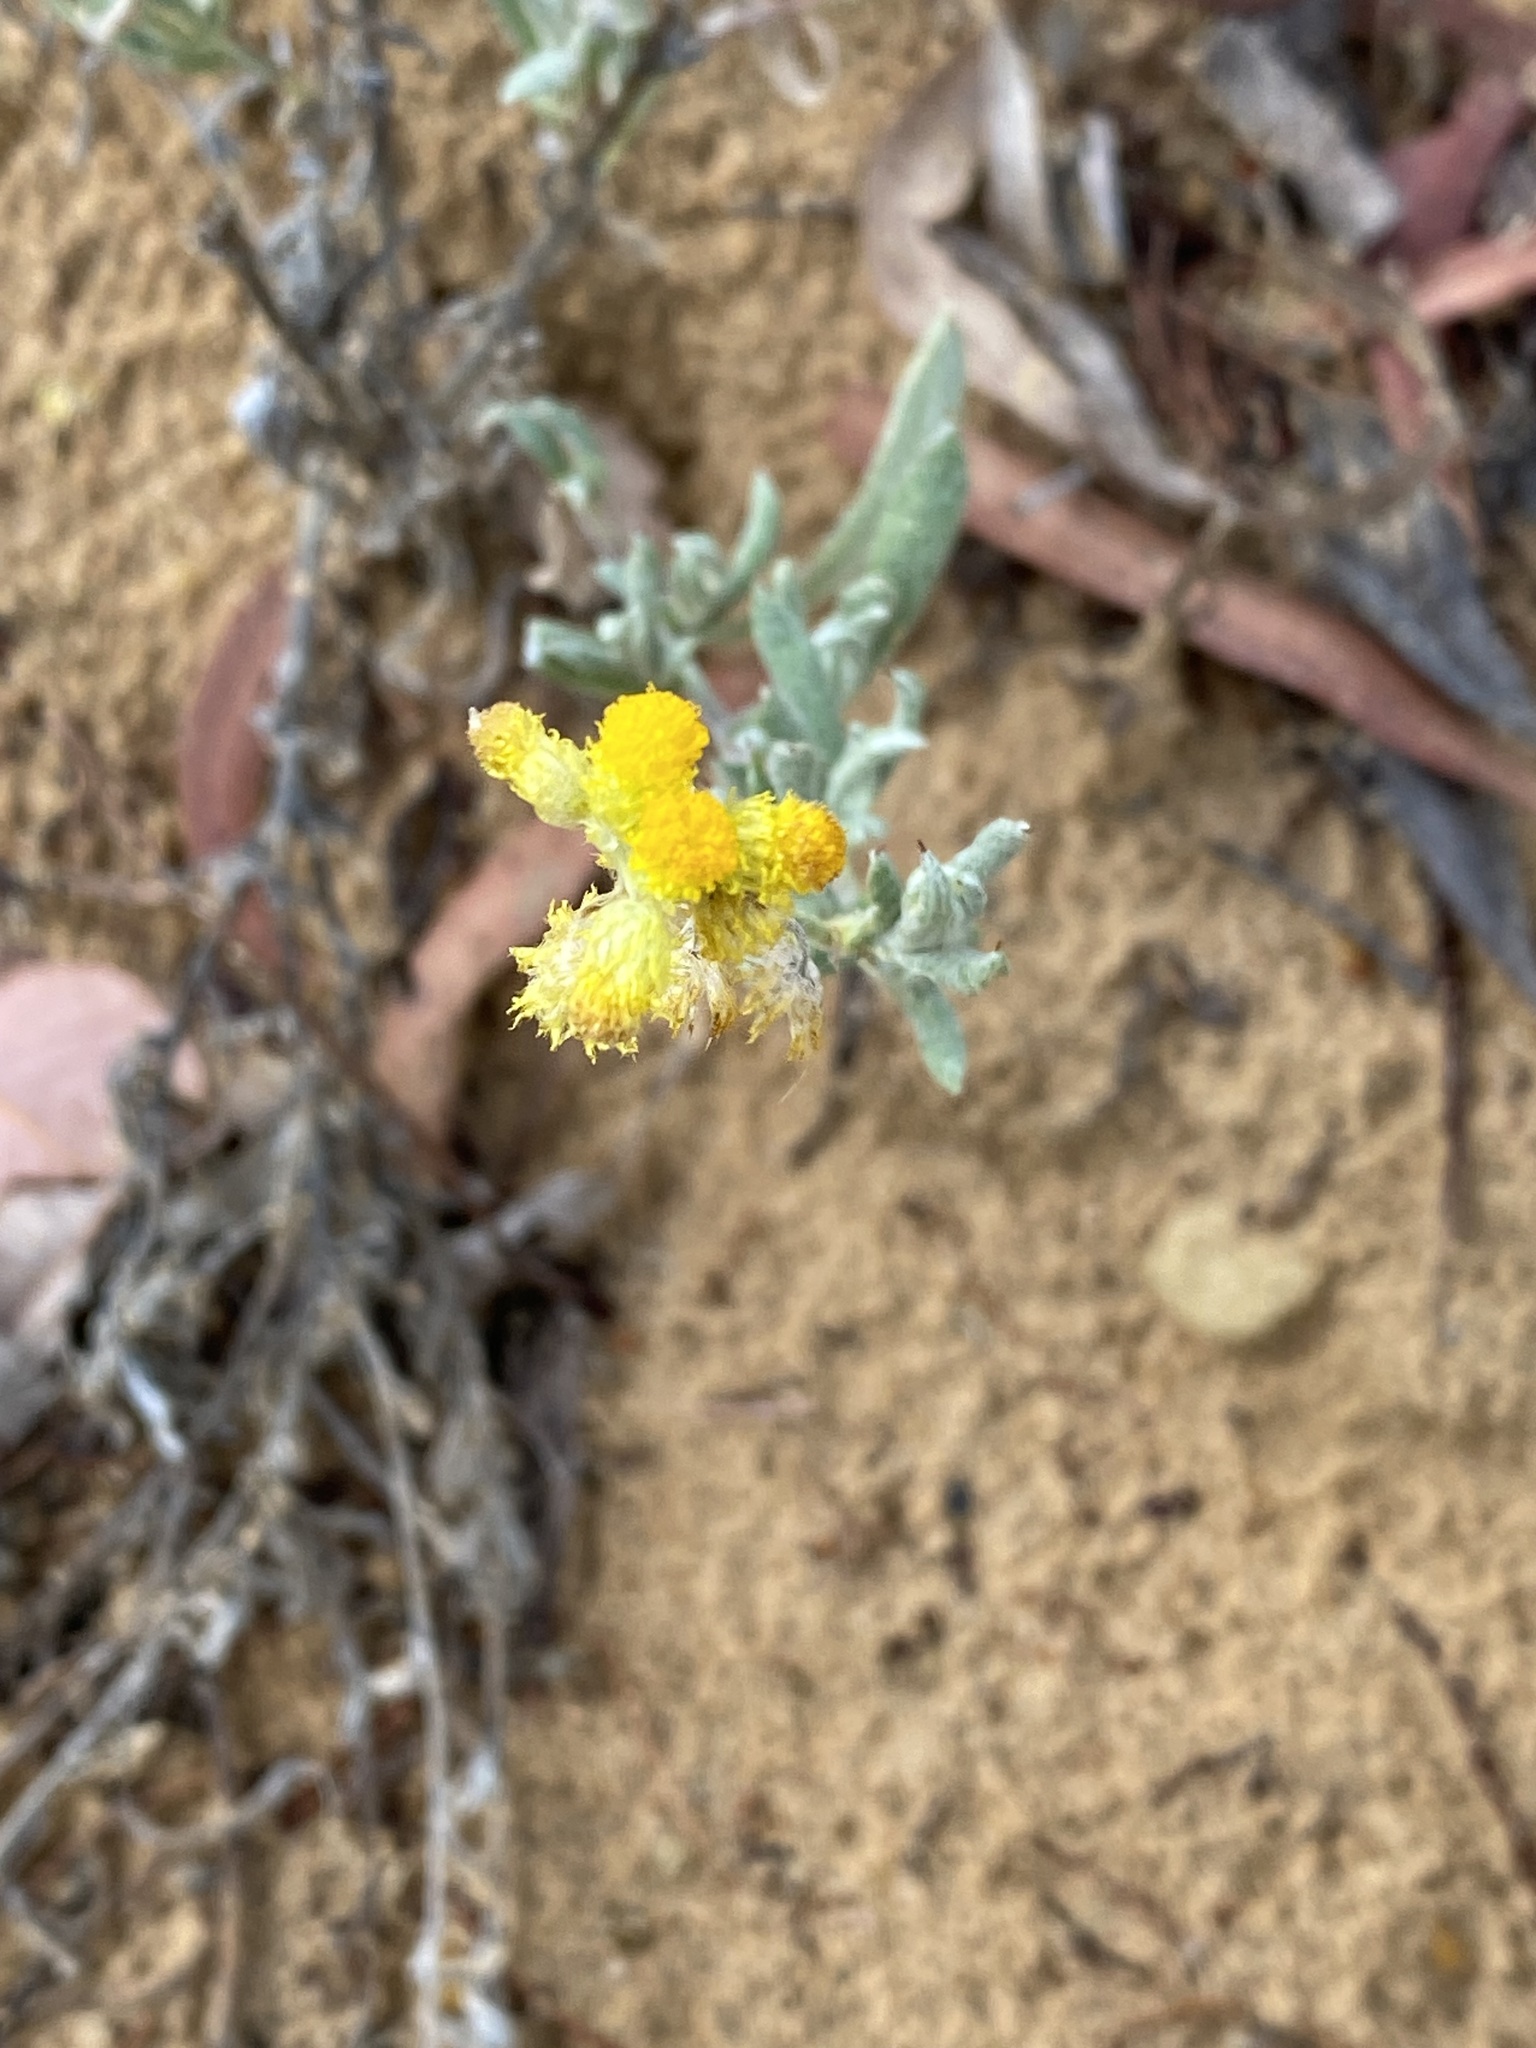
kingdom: Plantae
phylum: Tracheophyta
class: Magnoliopsida
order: Asterales
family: Asteraceae
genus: Chrysocephalum
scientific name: Chrysocephalum apiculatum
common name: Common everlasting
